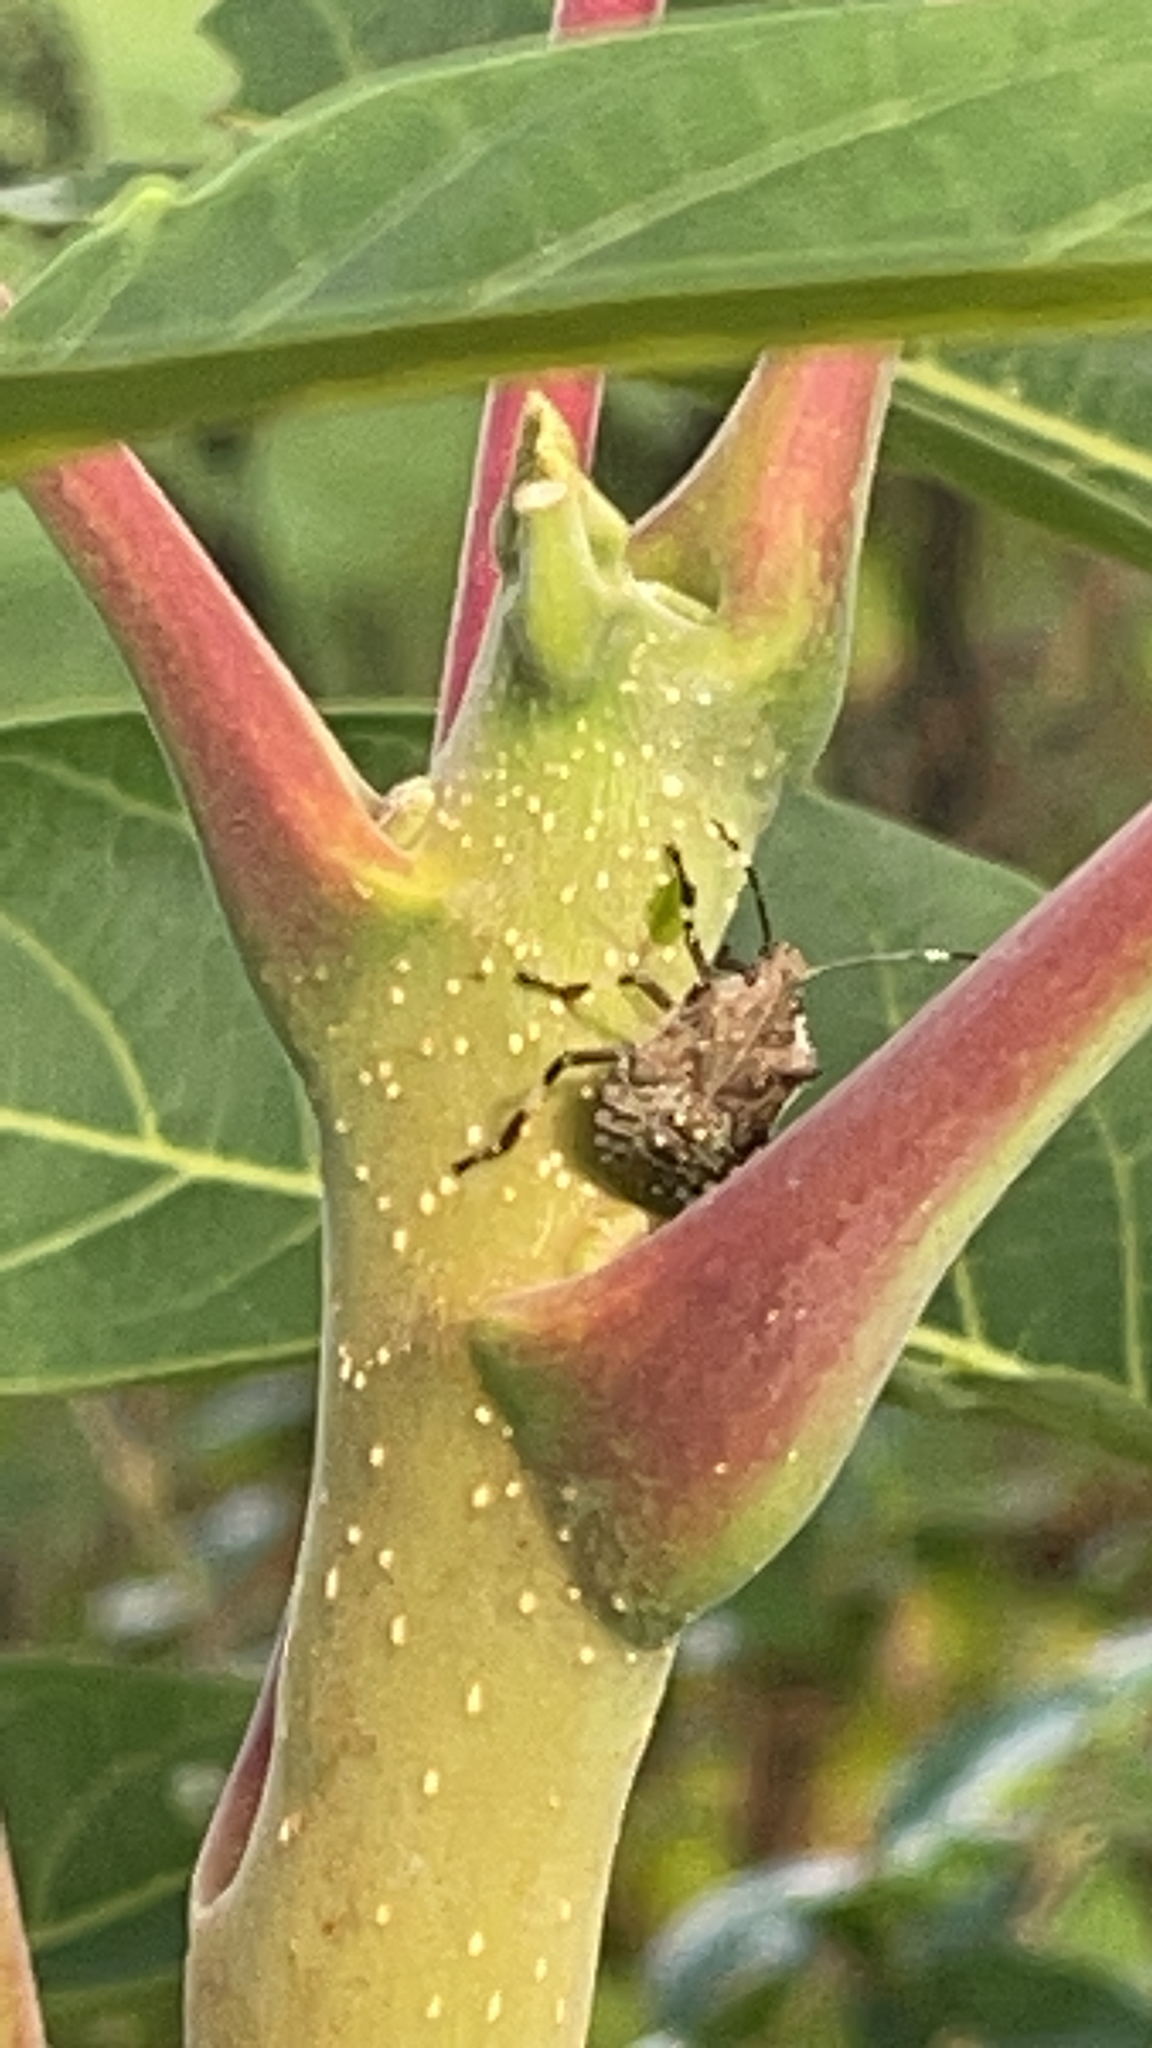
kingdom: Animalia
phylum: Arthropoda
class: Insecta
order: Hemiptera
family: Pentatomidae
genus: Halyomorpha
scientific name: Halyomorpha halys
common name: Brown marmorated stink bug
